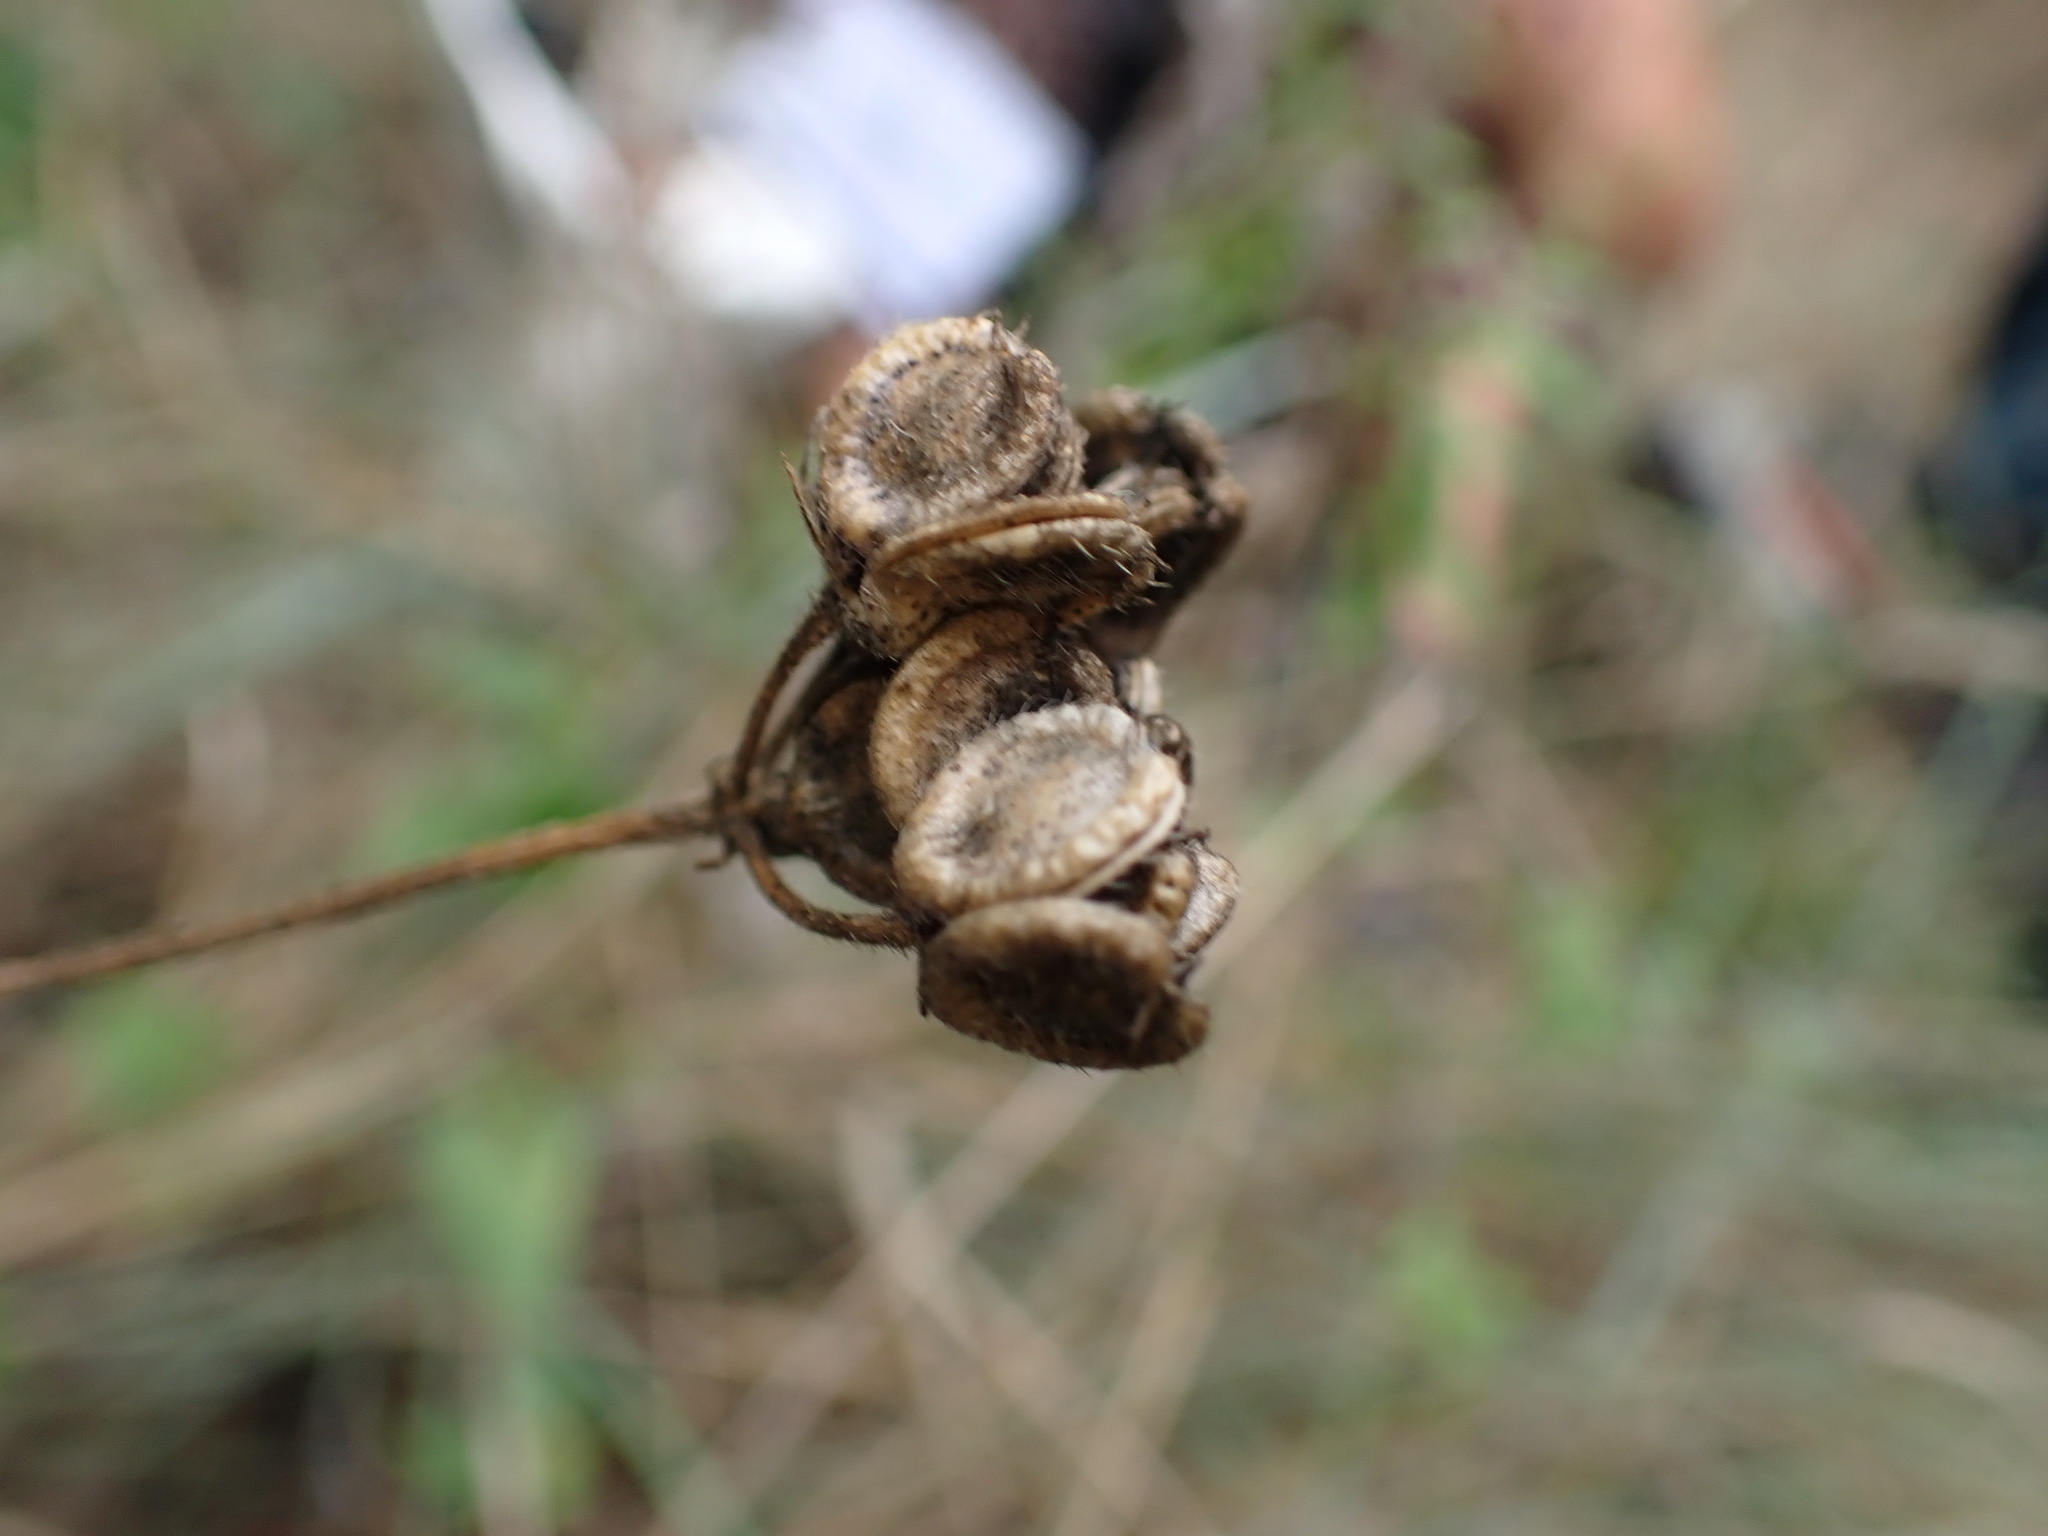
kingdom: Plantae
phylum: Tracheophyta
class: Magnoliopsida
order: Apiales
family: Apiaceae
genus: Tordylium
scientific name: Tordylium maximum
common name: Hartwort
